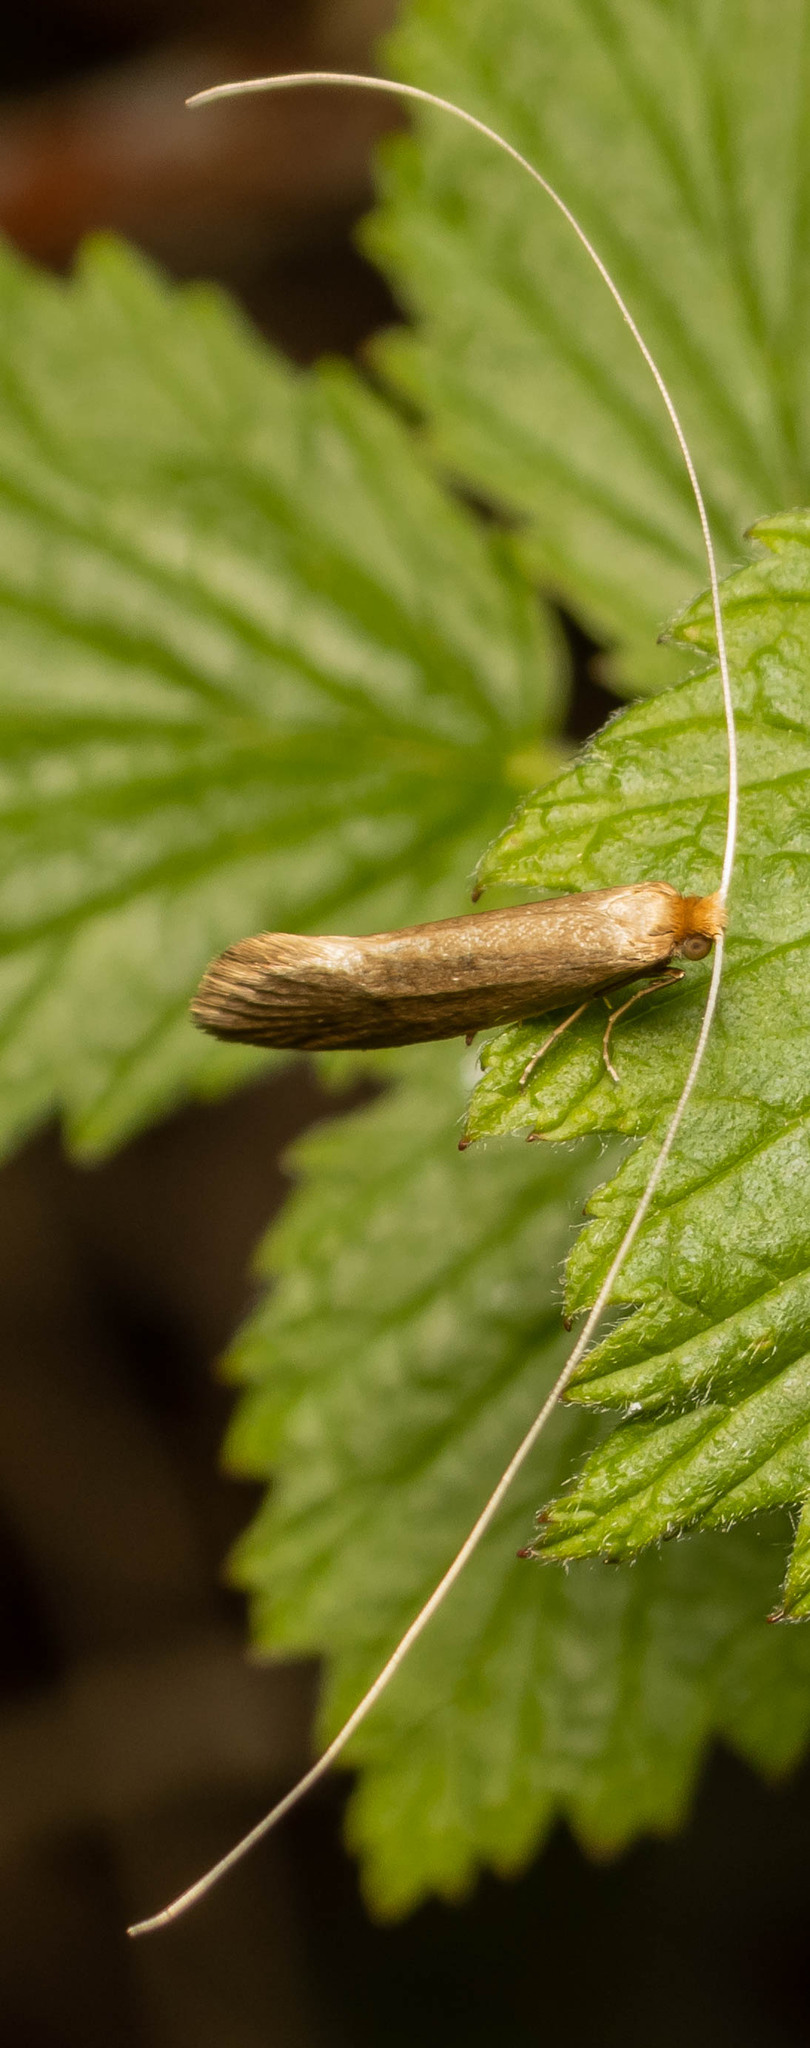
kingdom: Animalia
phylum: Arthropoda
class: Insecta
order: Lepidoptera
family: Adelidae
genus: Nematopogon
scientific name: Nematopogon swammerdamella
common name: Large long-horn
